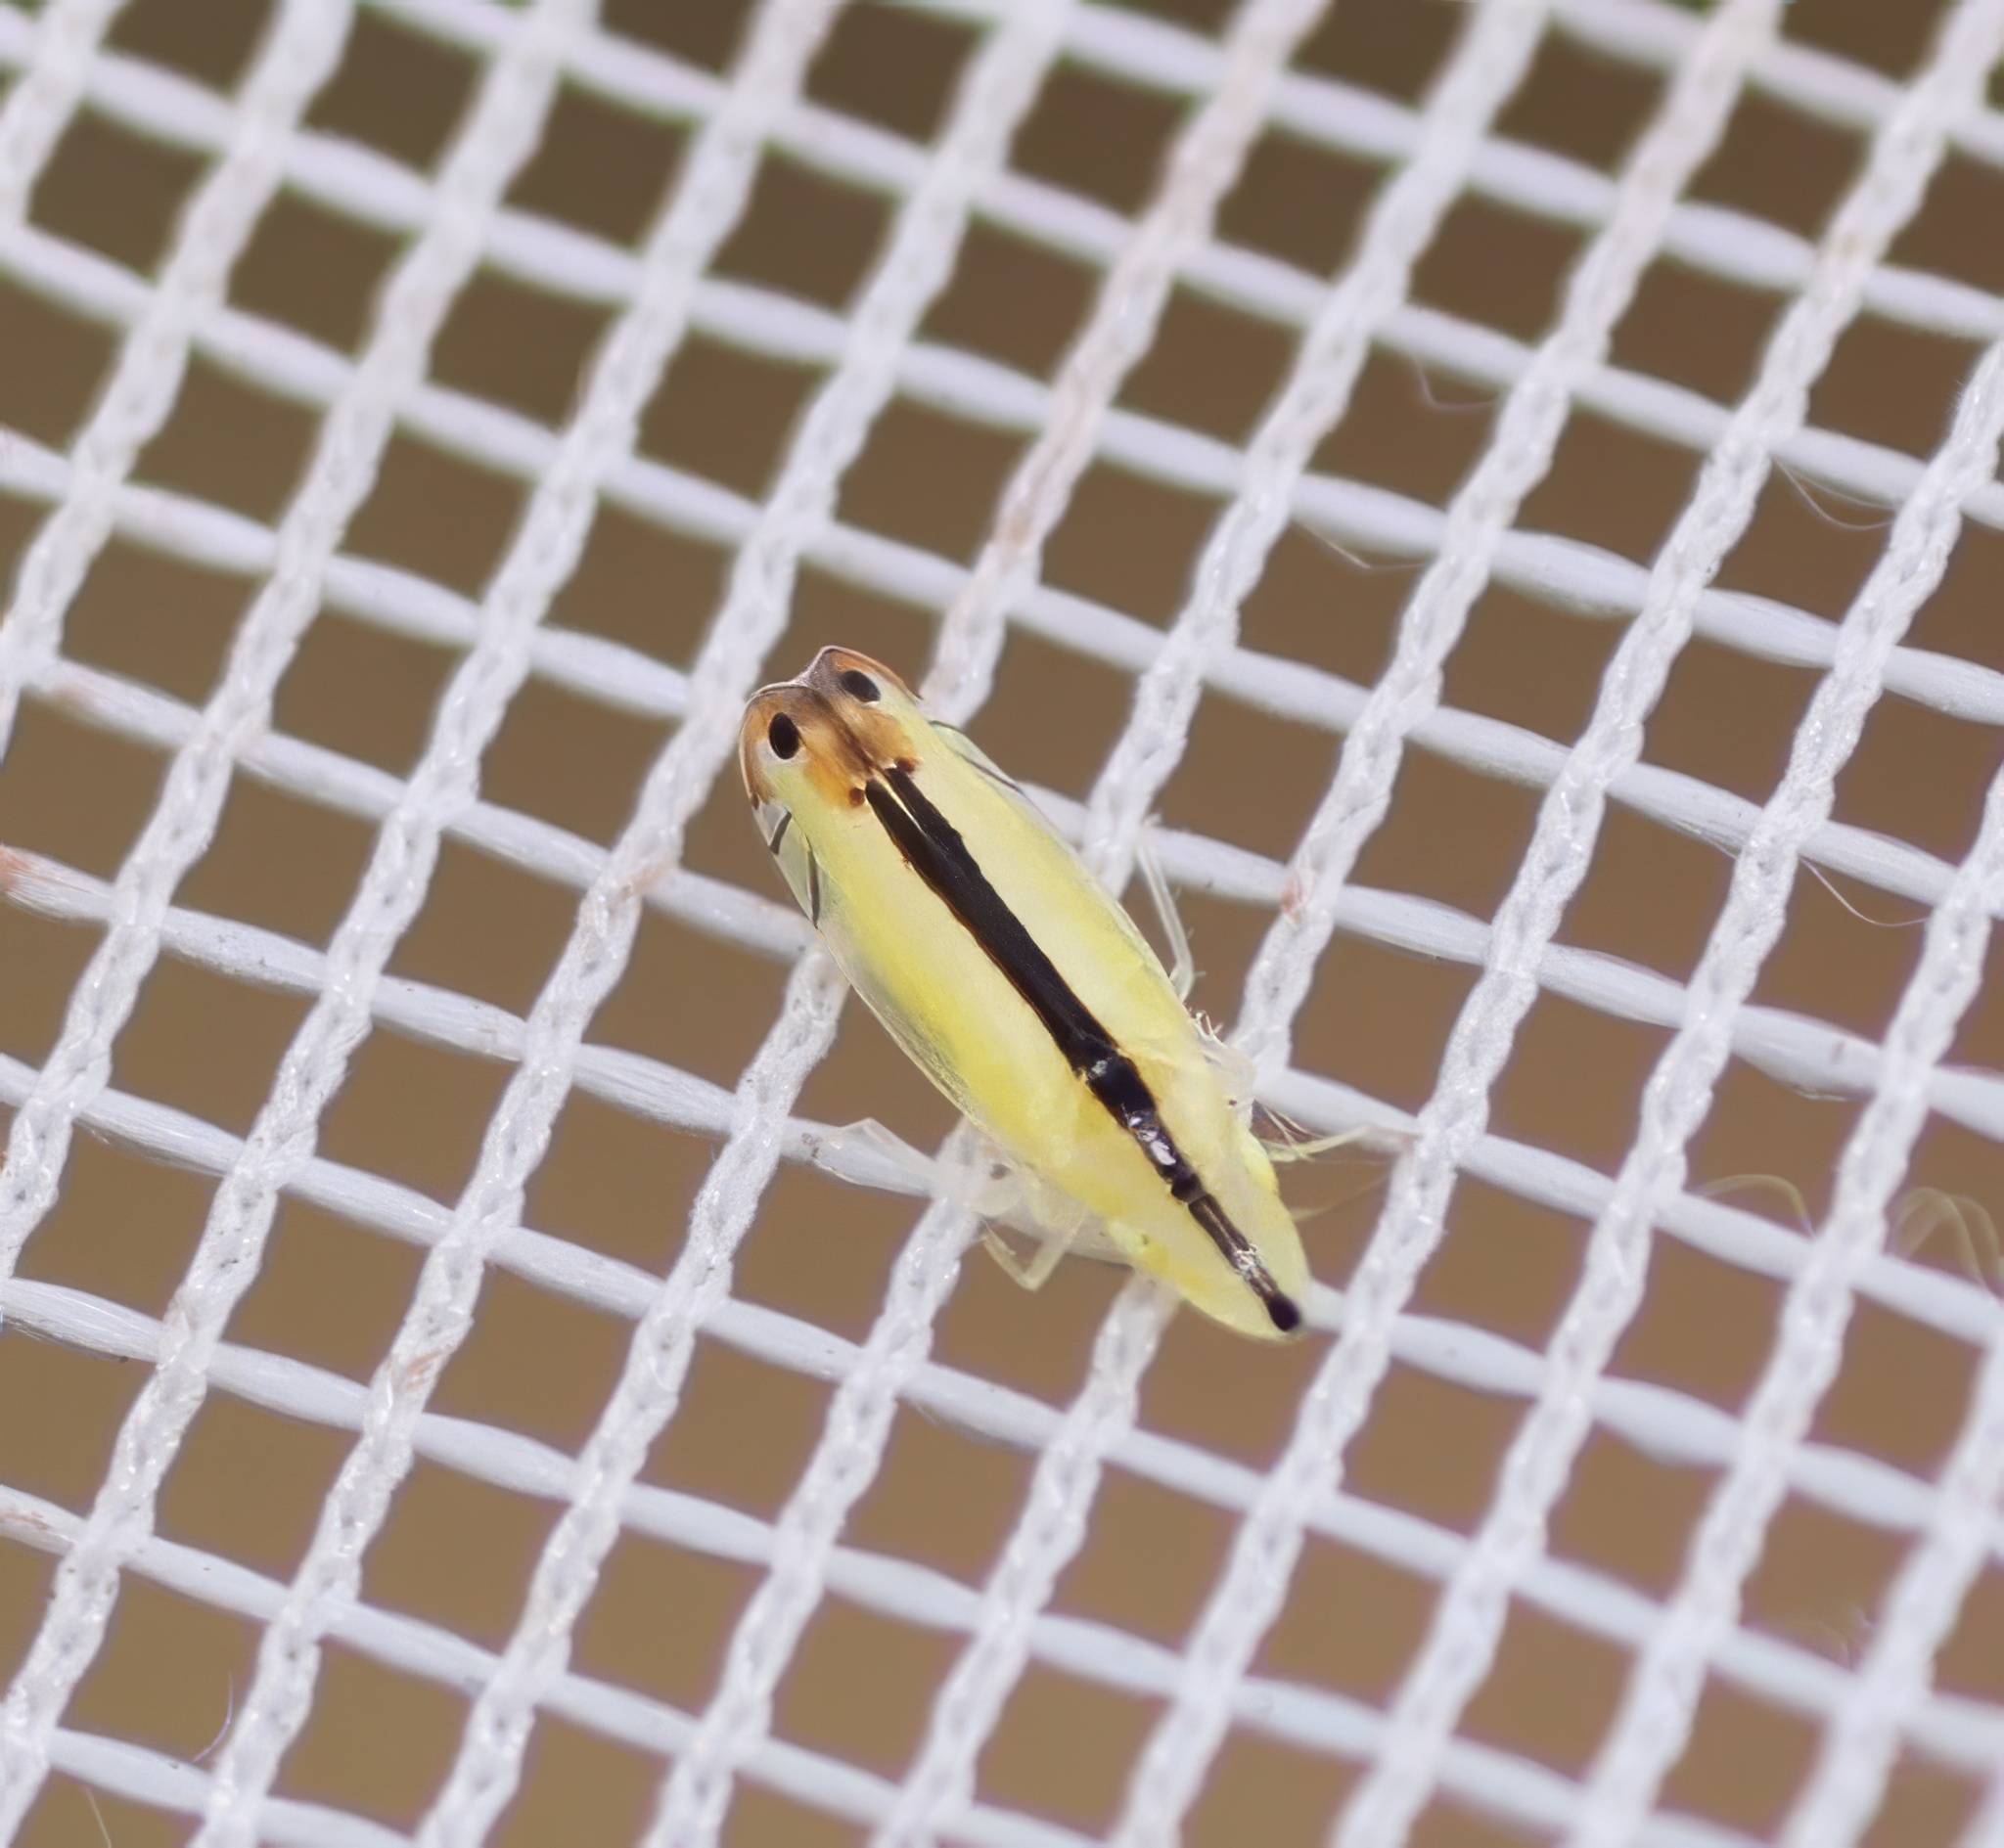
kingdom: Animalia
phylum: Arthropoda
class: Insecta
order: Hemiptera
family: Cicadellidae
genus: Sophonia
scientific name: Sophonia orientalis
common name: Two-spotted leafhopper
